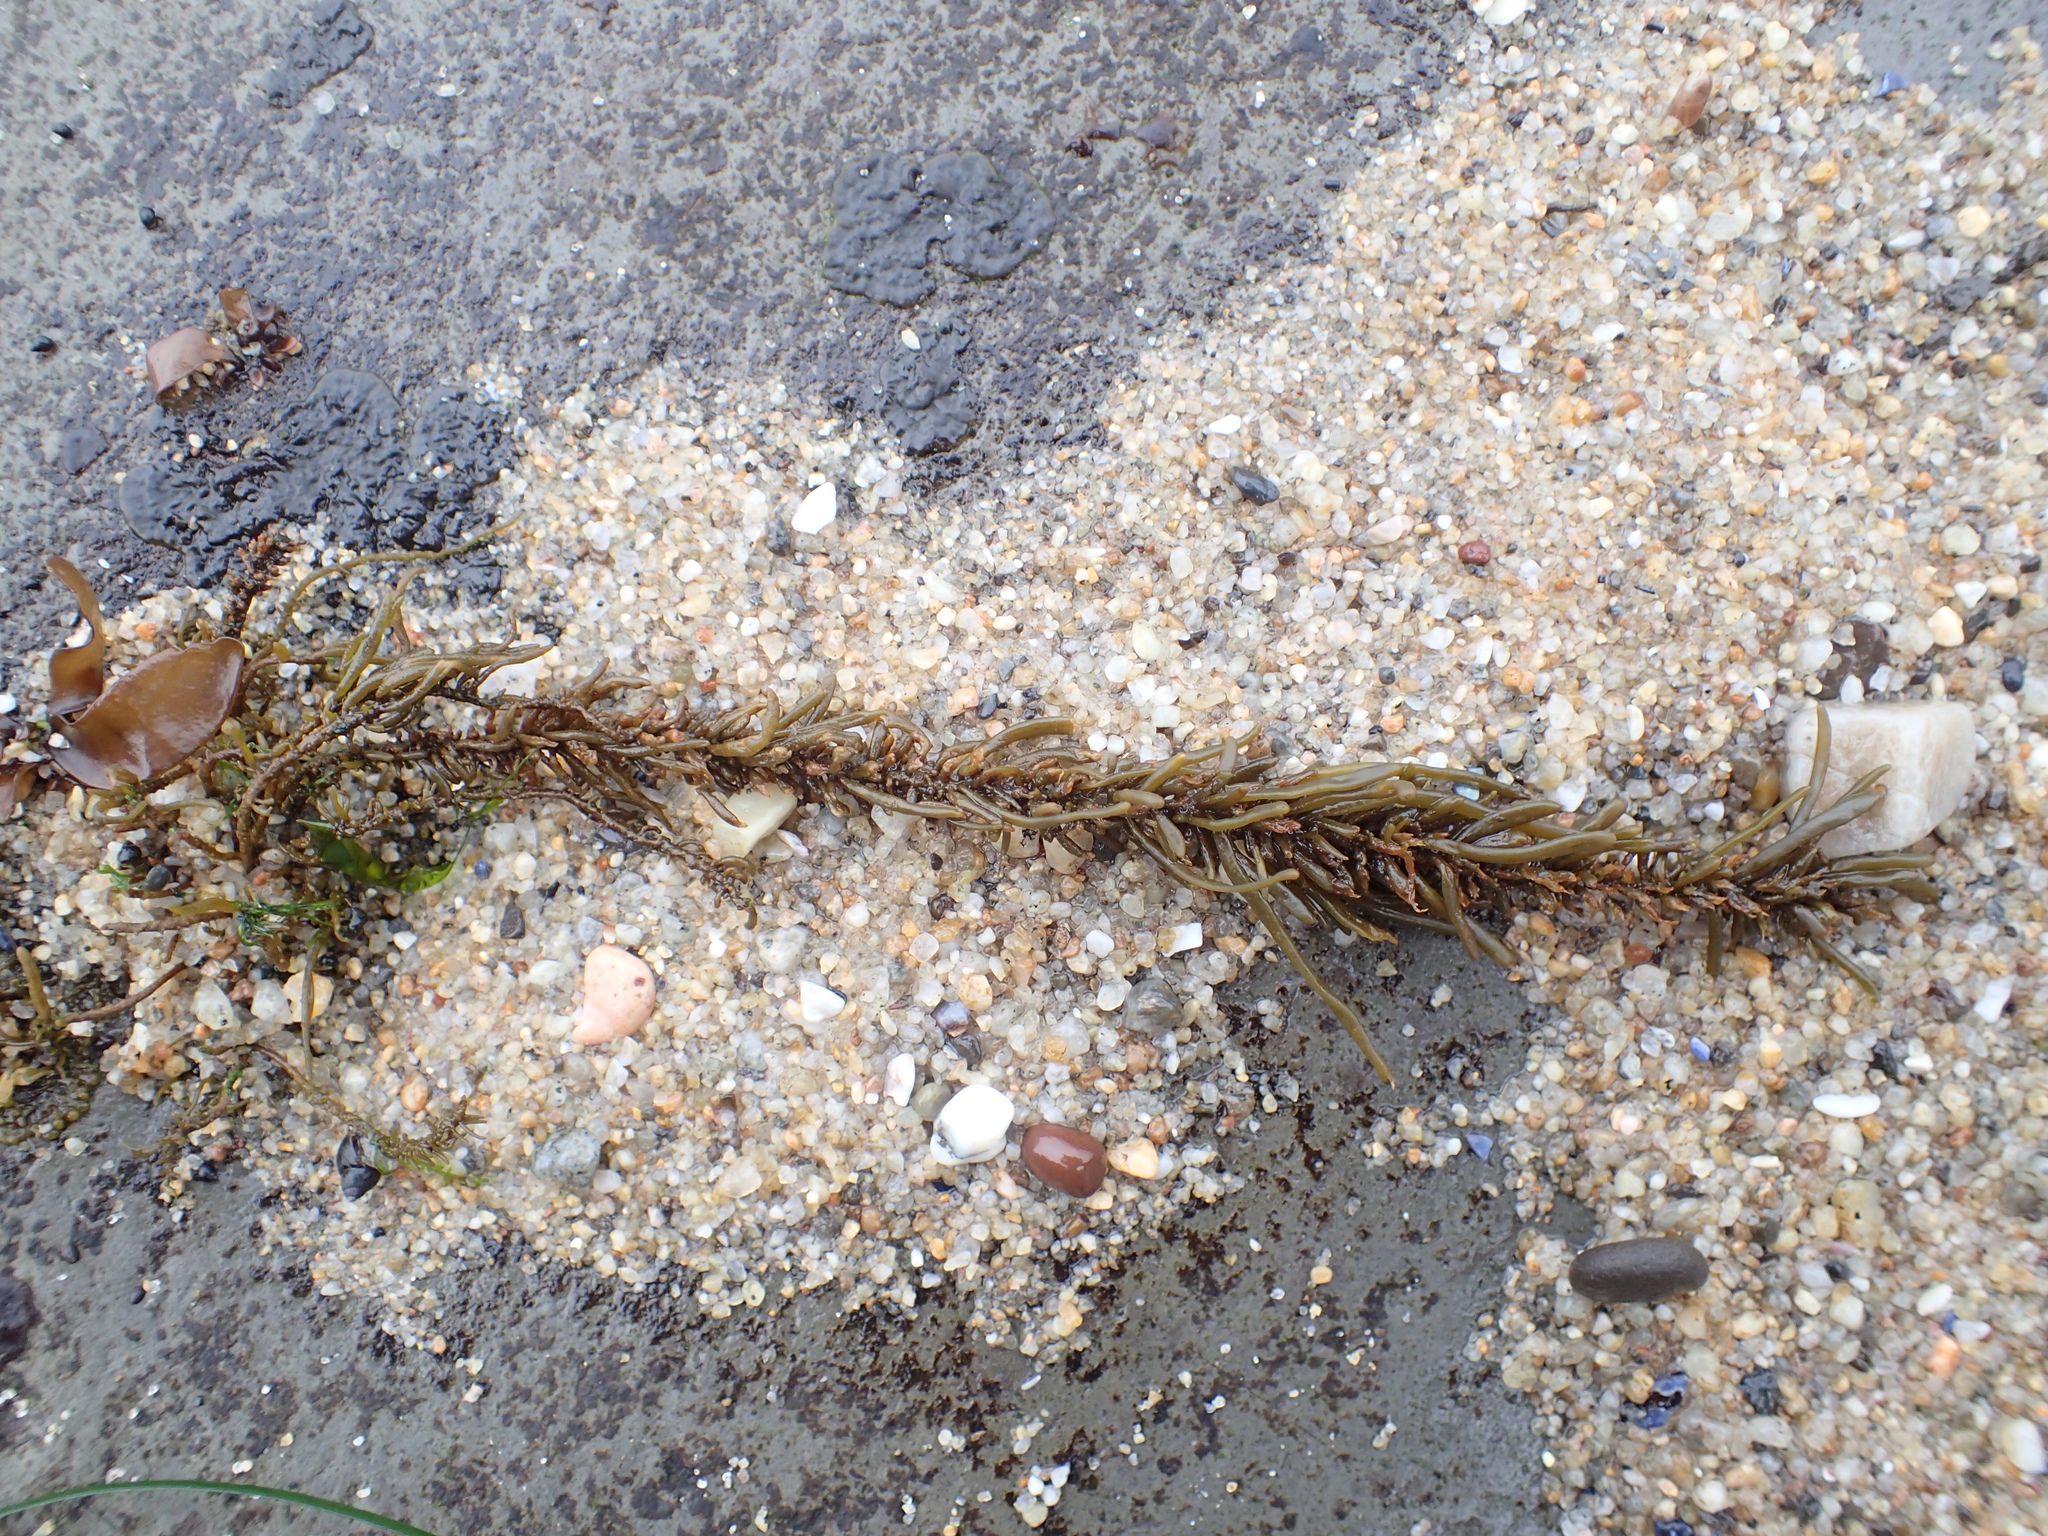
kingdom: Chromista
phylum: Ochrophyta
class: Phaeophyceae
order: Scytosiphonales
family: Scytosiphonaceae
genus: Analipus
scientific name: Analipus japonicus
